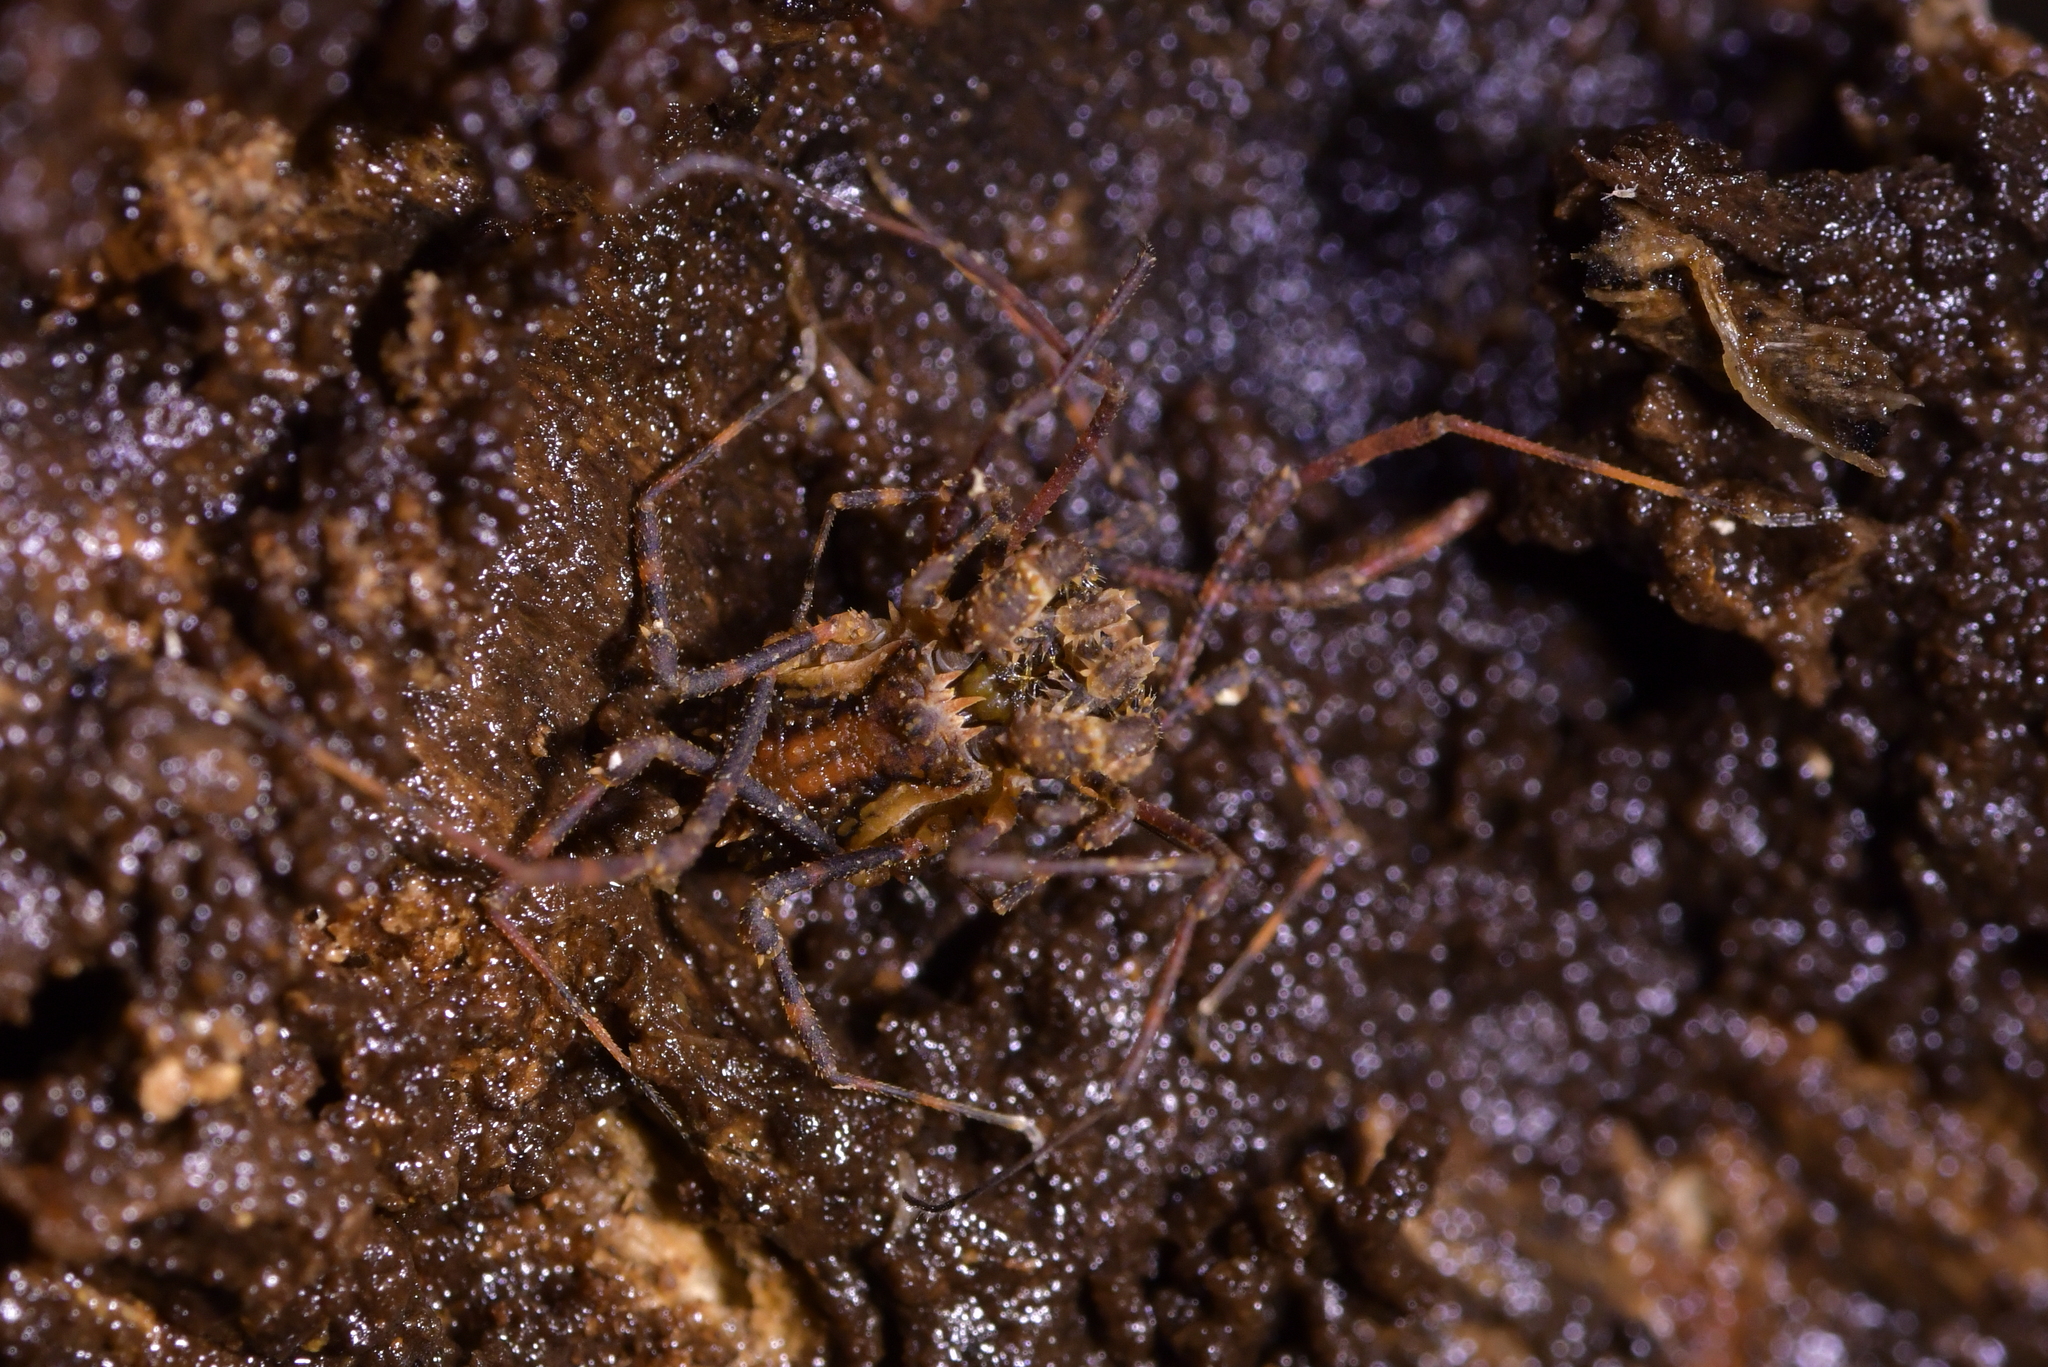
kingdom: Animalia
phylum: Arthropoda
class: Arachnida
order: Opiliones
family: Triaenonychidae
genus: Algidia
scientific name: Algidia nigriflava
